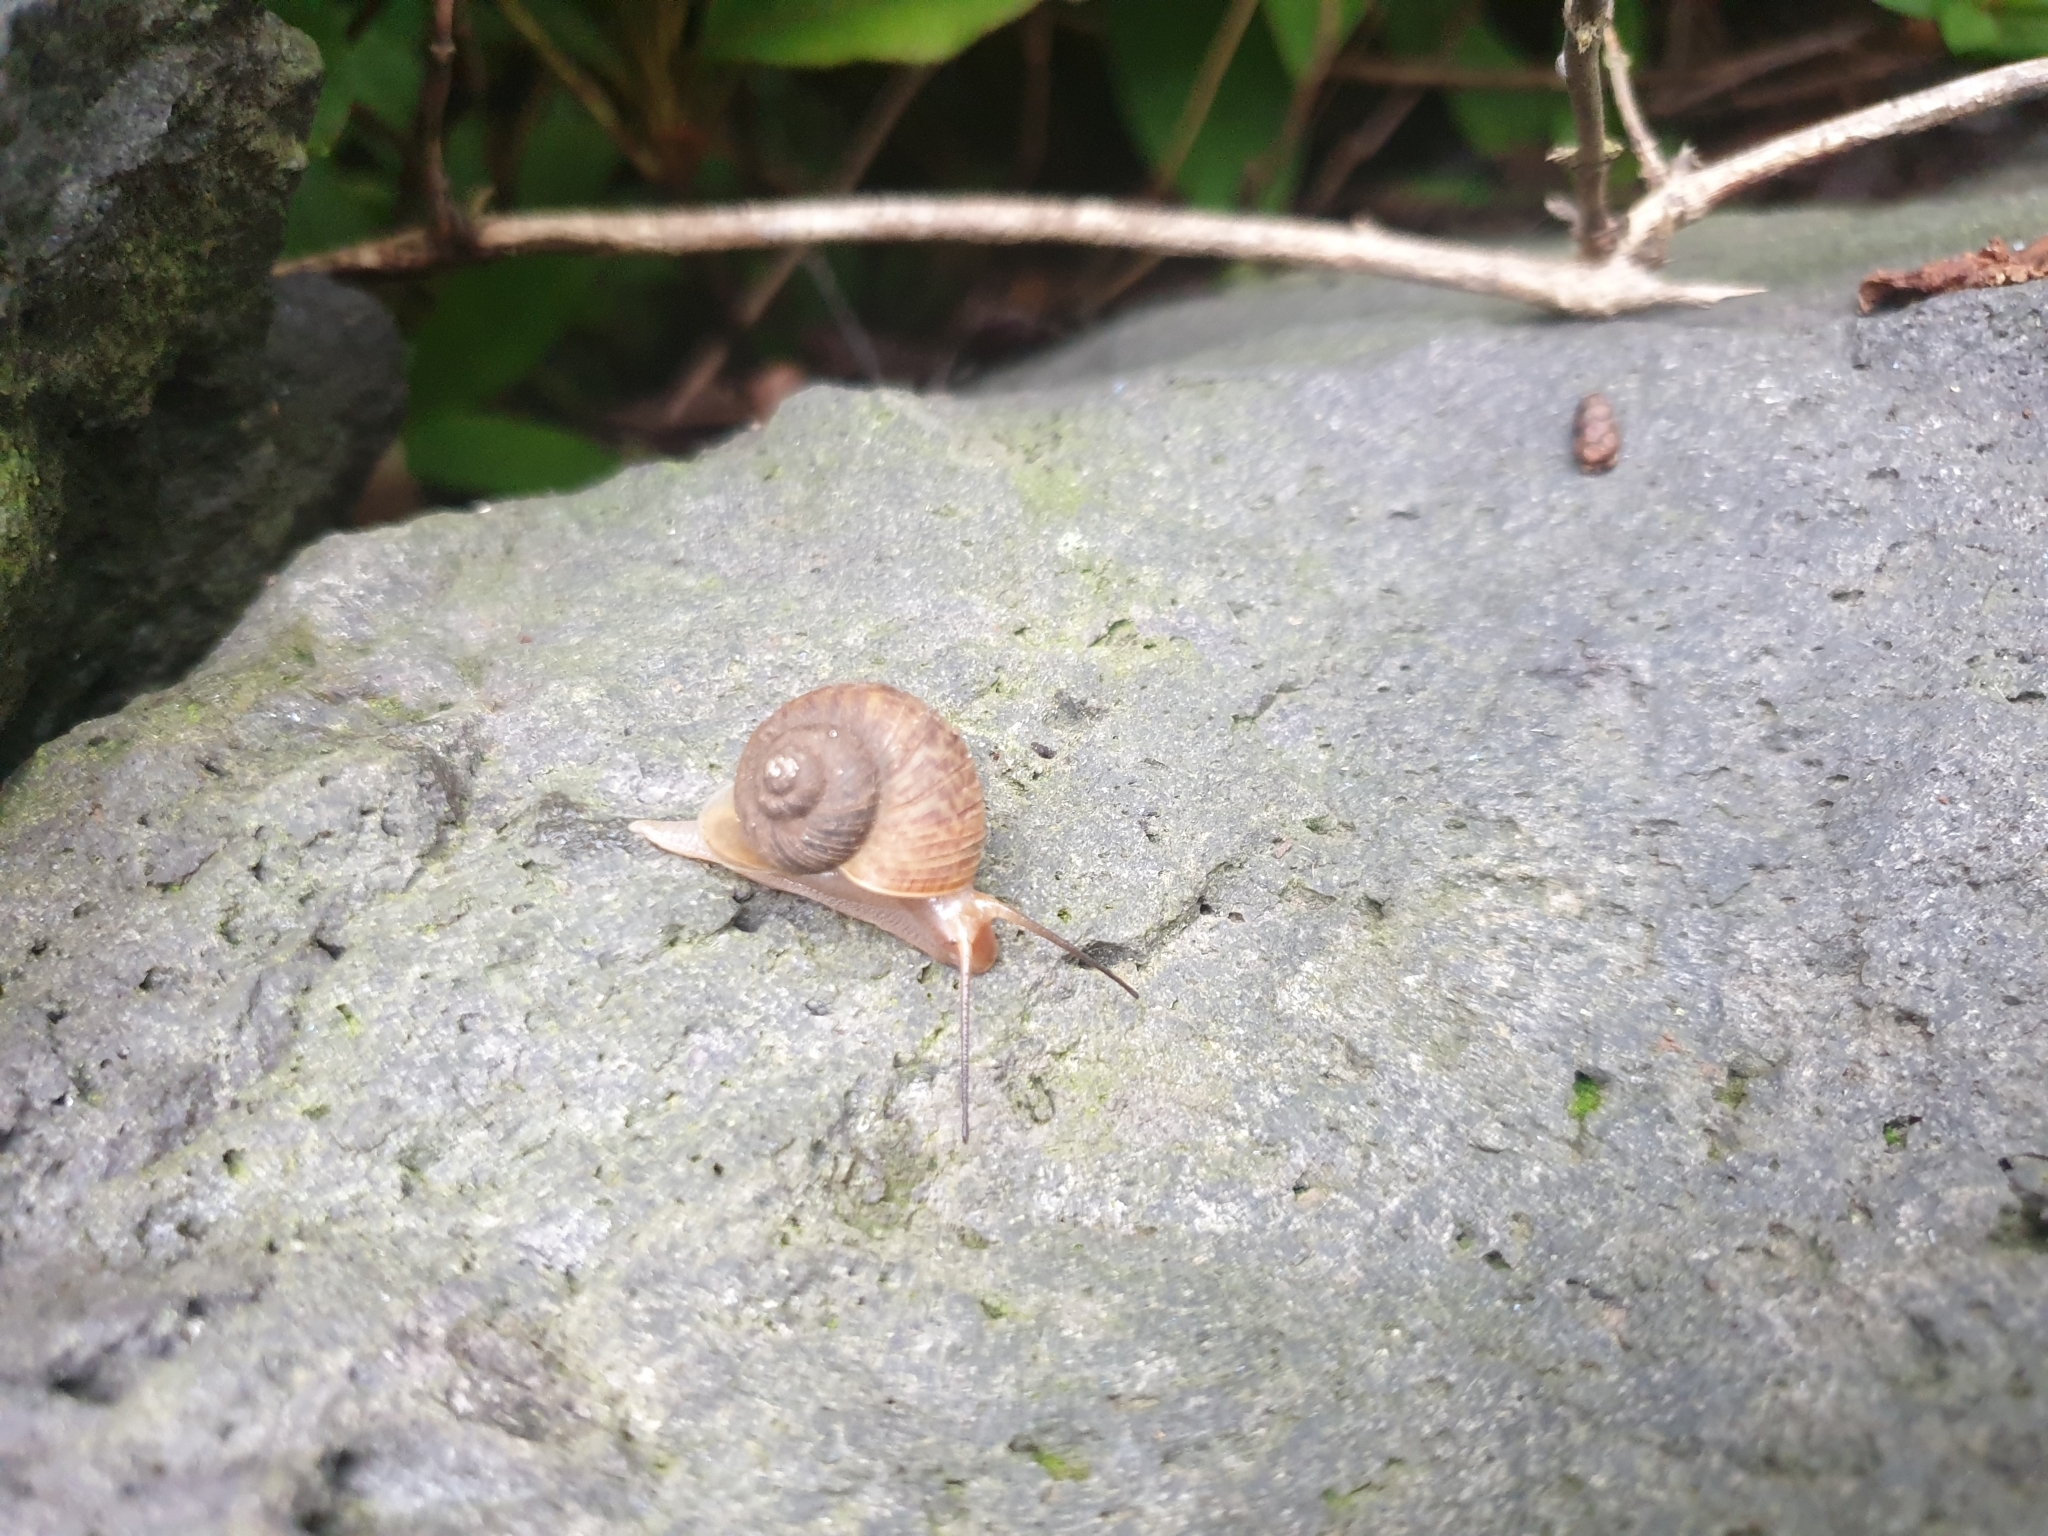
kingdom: Animalia
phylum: Mollusca
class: Gastropoda
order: Architaenioglossa
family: Cyclophoridae
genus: Cyclophorus
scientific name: Cyclophorus herklotsi
